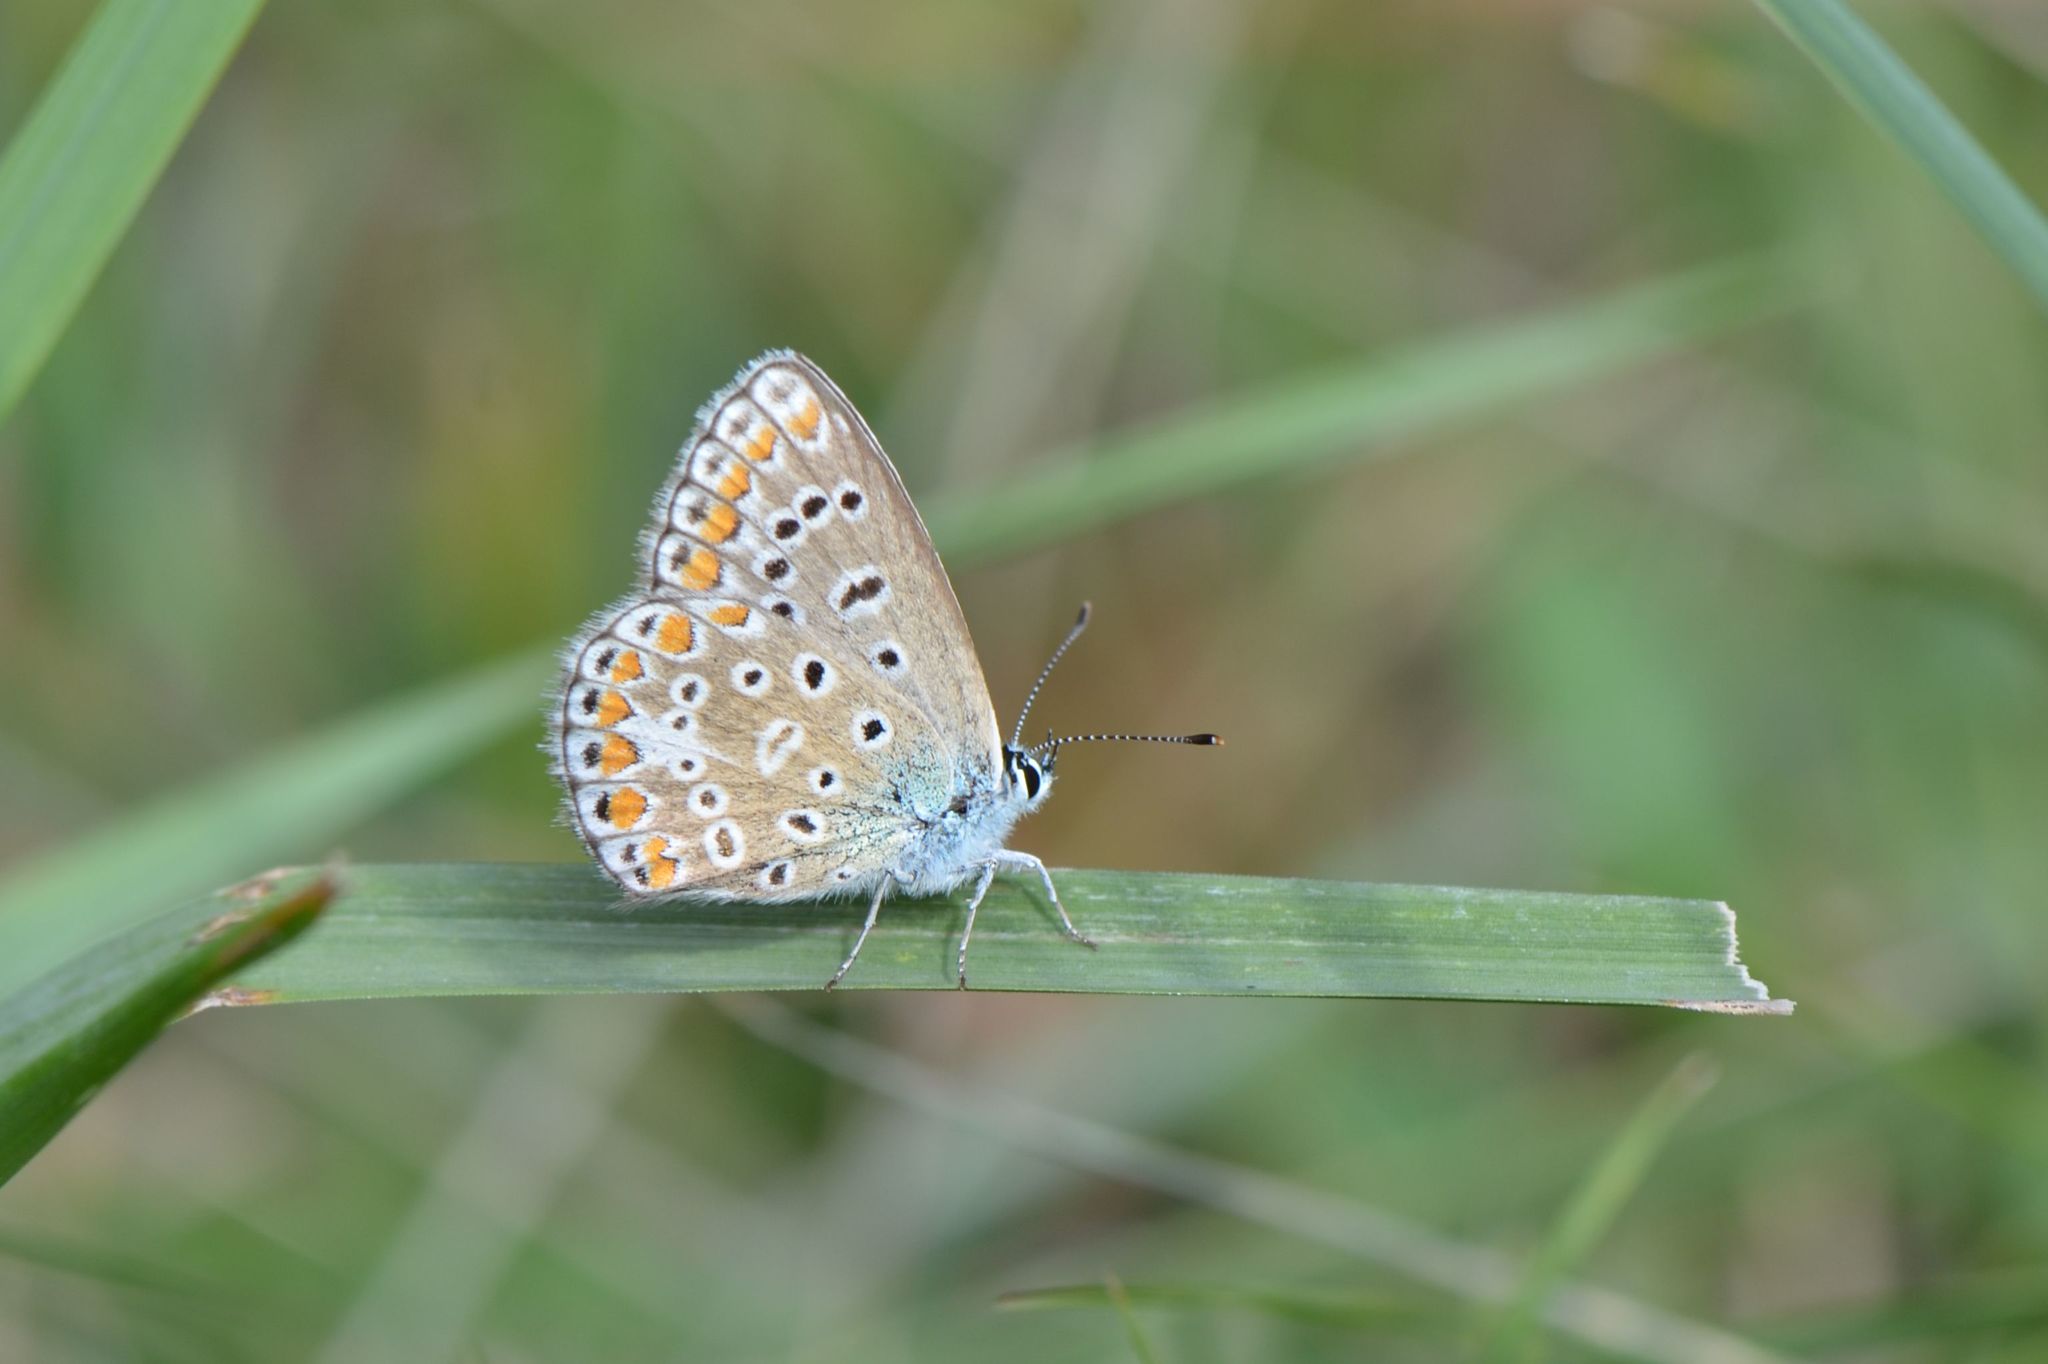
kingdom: Animalia
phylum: Arthropoda
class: Insecta
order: Lepidoptera
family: Lycaenidae
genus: Polyommatus
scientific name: Polyommatus icarus
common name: Common blue
